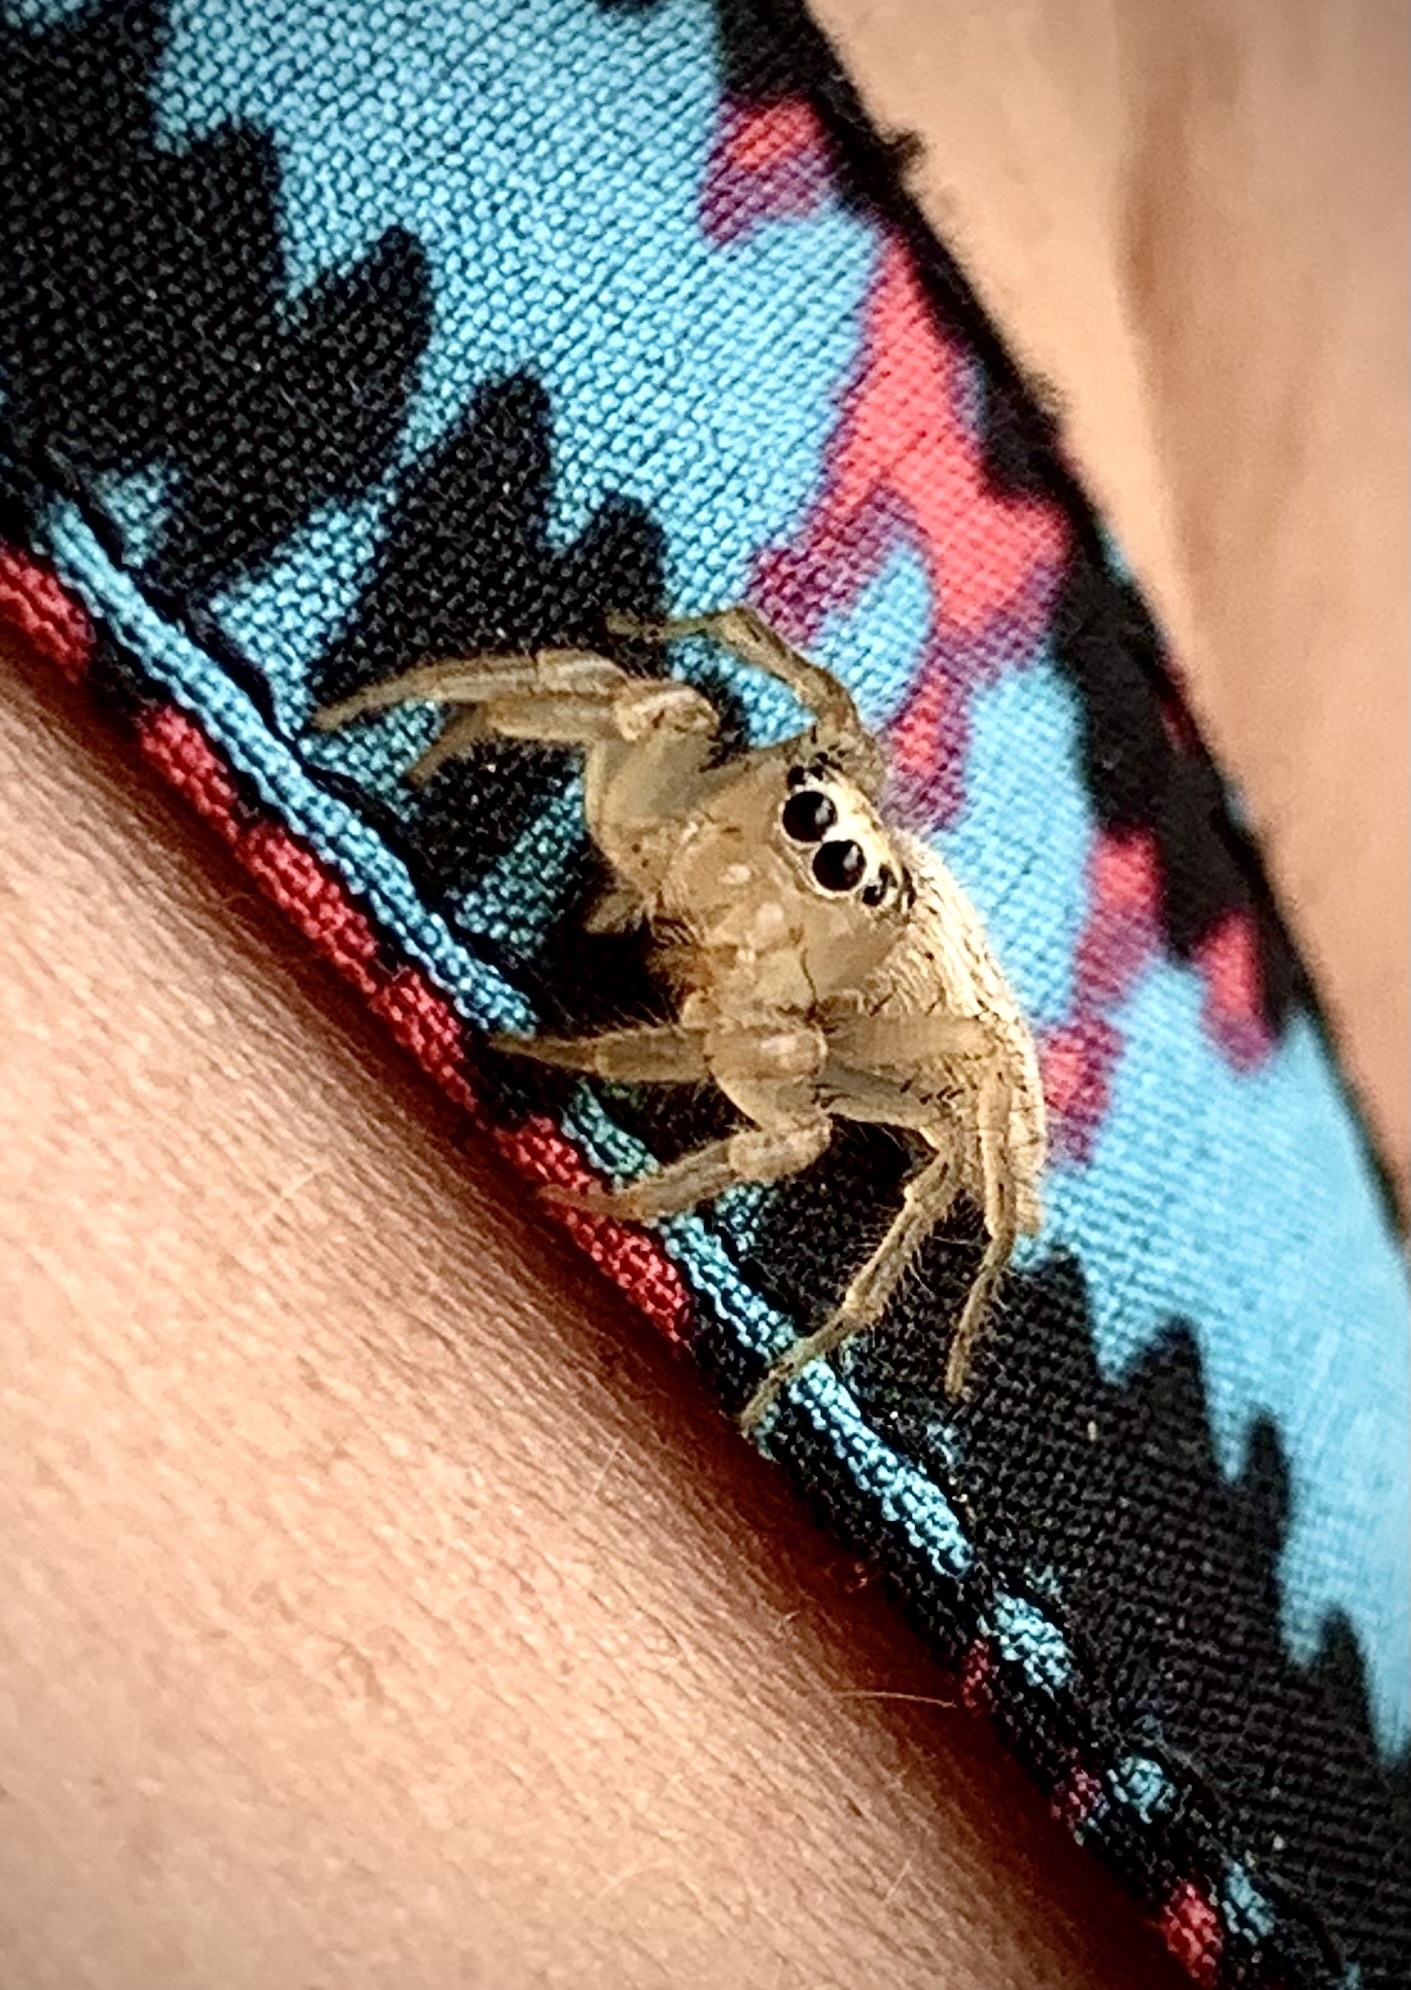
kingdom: Animalia
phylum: Arthropoda
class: Arachnida
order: Araneae
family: Salticidae
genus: Colonus
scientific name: Colonus puerperus
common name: Jumping spiders
